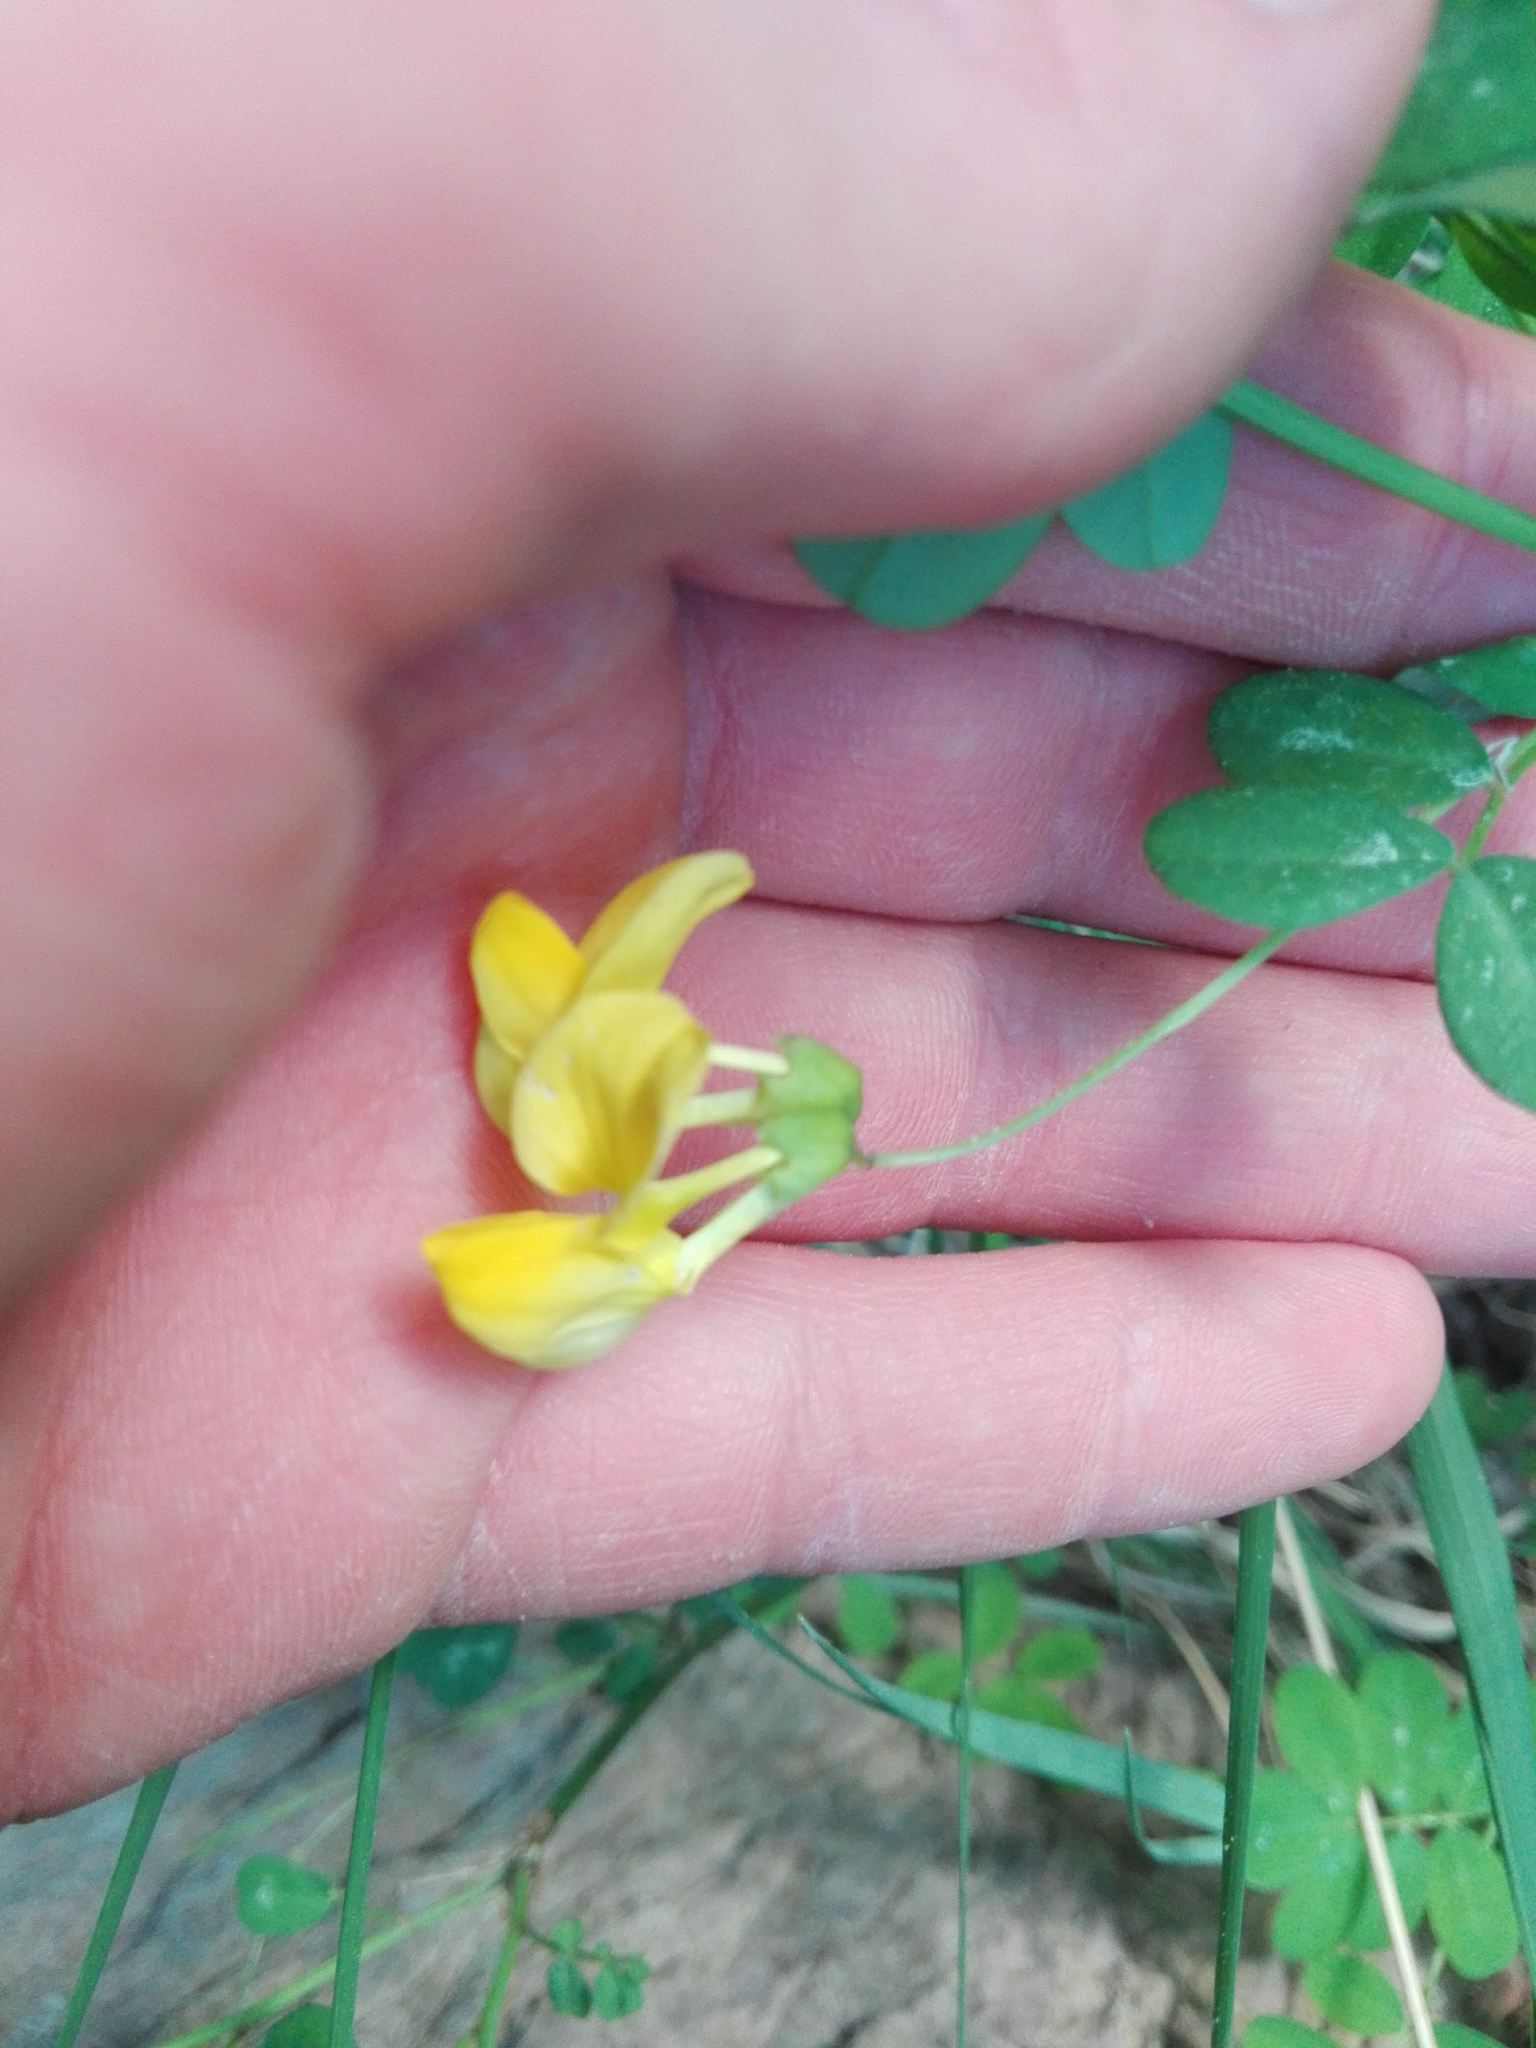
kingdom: Plantae
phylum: Tracheophyta
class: Magnoliopsida
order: Fabales
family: Fabaceae
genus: Hippocrepis
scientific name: Hippocrepis emerus
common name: Scorpion senna
